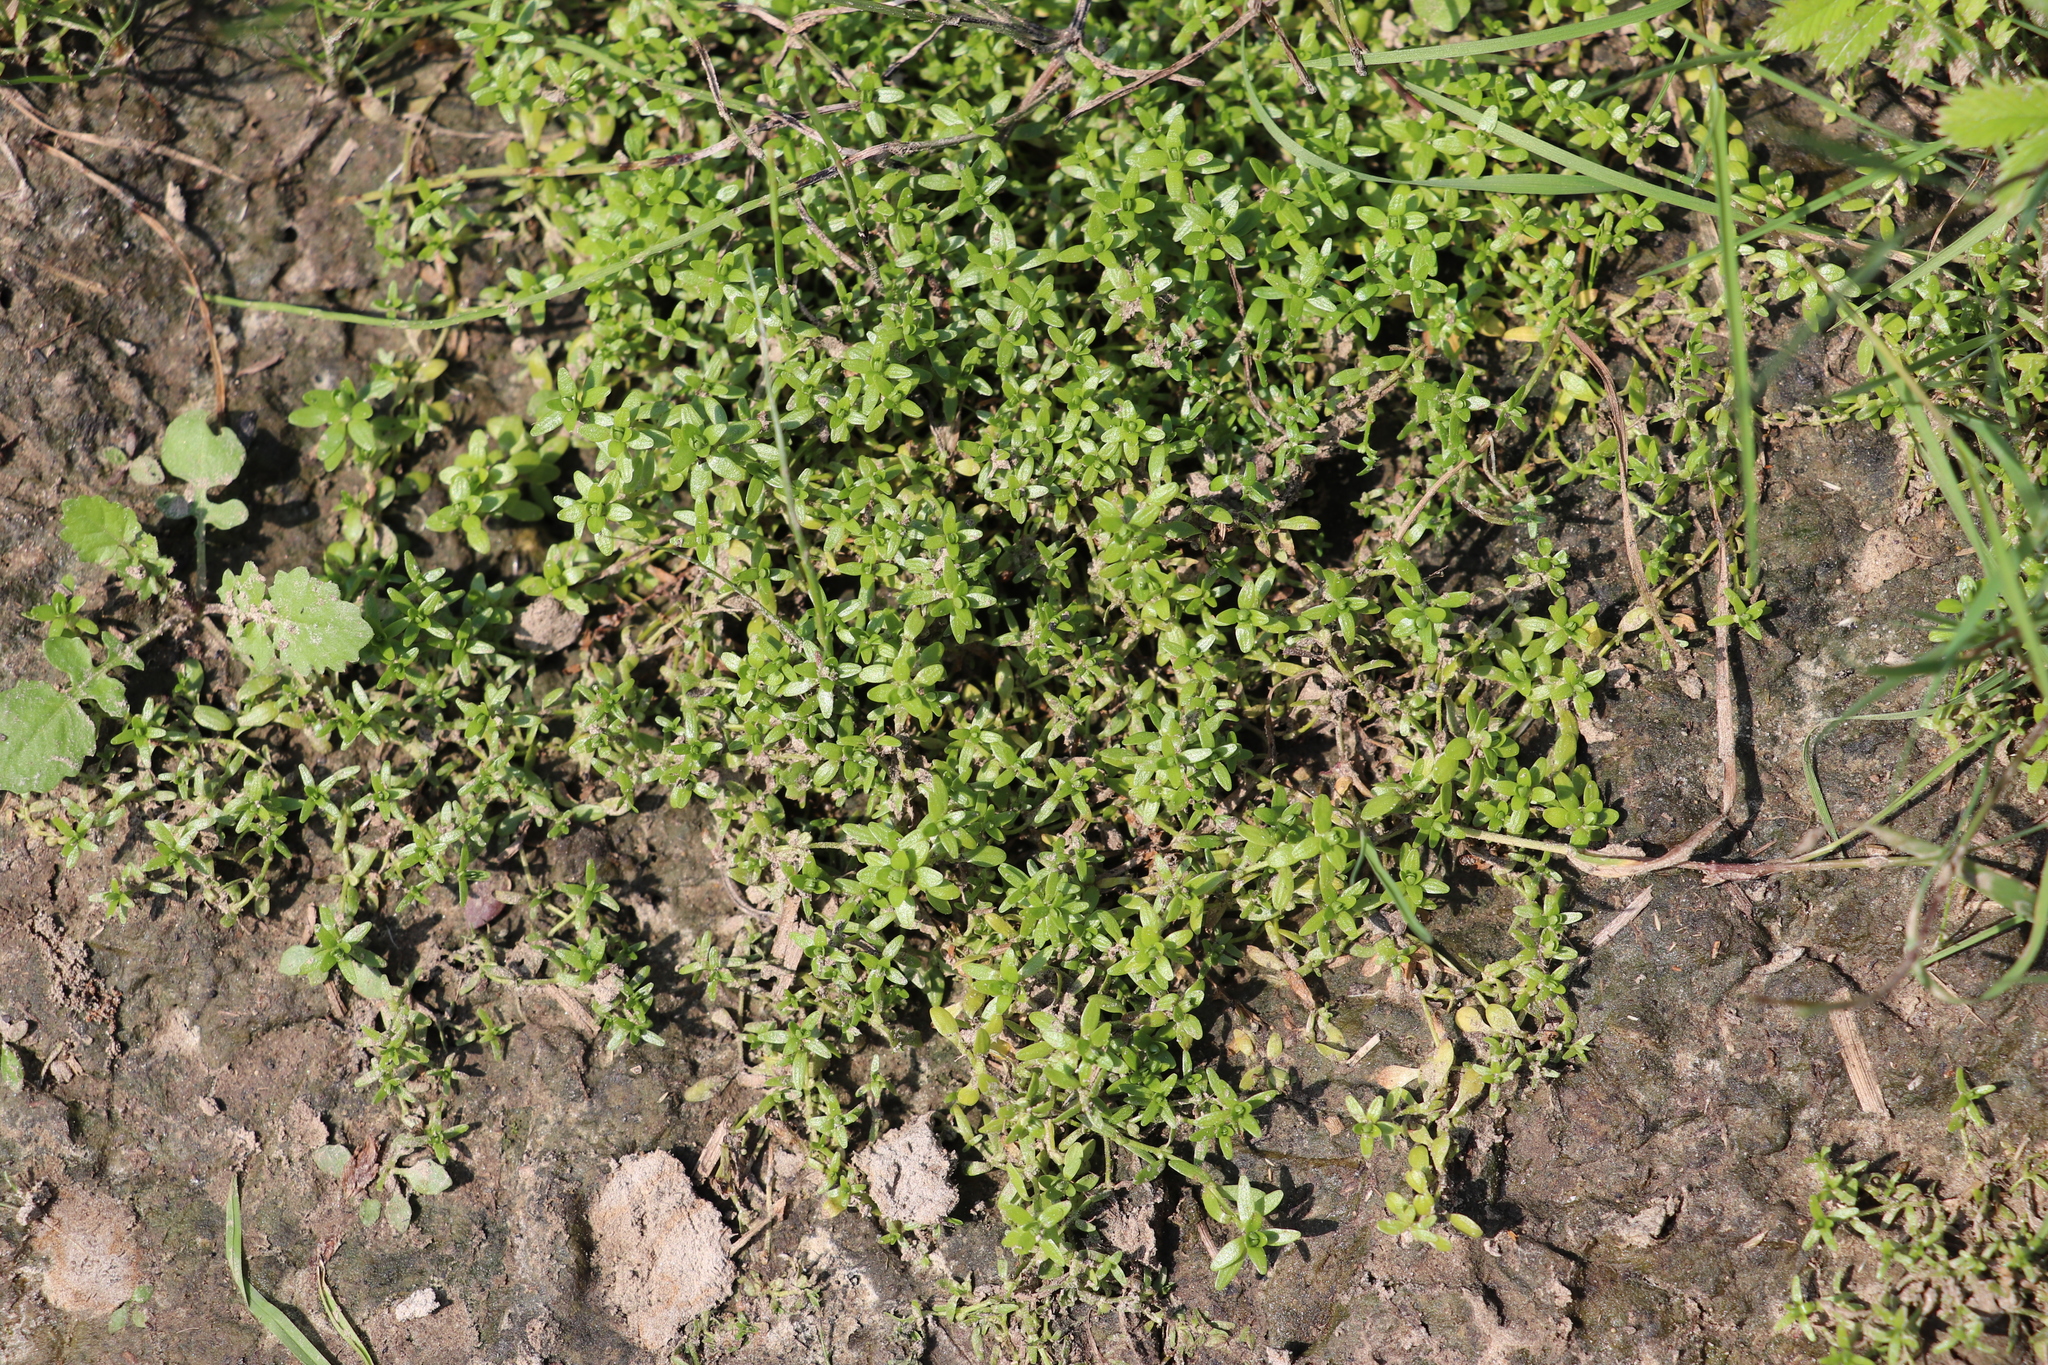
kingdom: Plantae
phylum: Tracheophyta
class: Magnoliopsida
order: Lamiales
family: Plantaginaceae
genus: Callitriche
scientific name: Callitriche palustris
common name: Spring water-starwort
